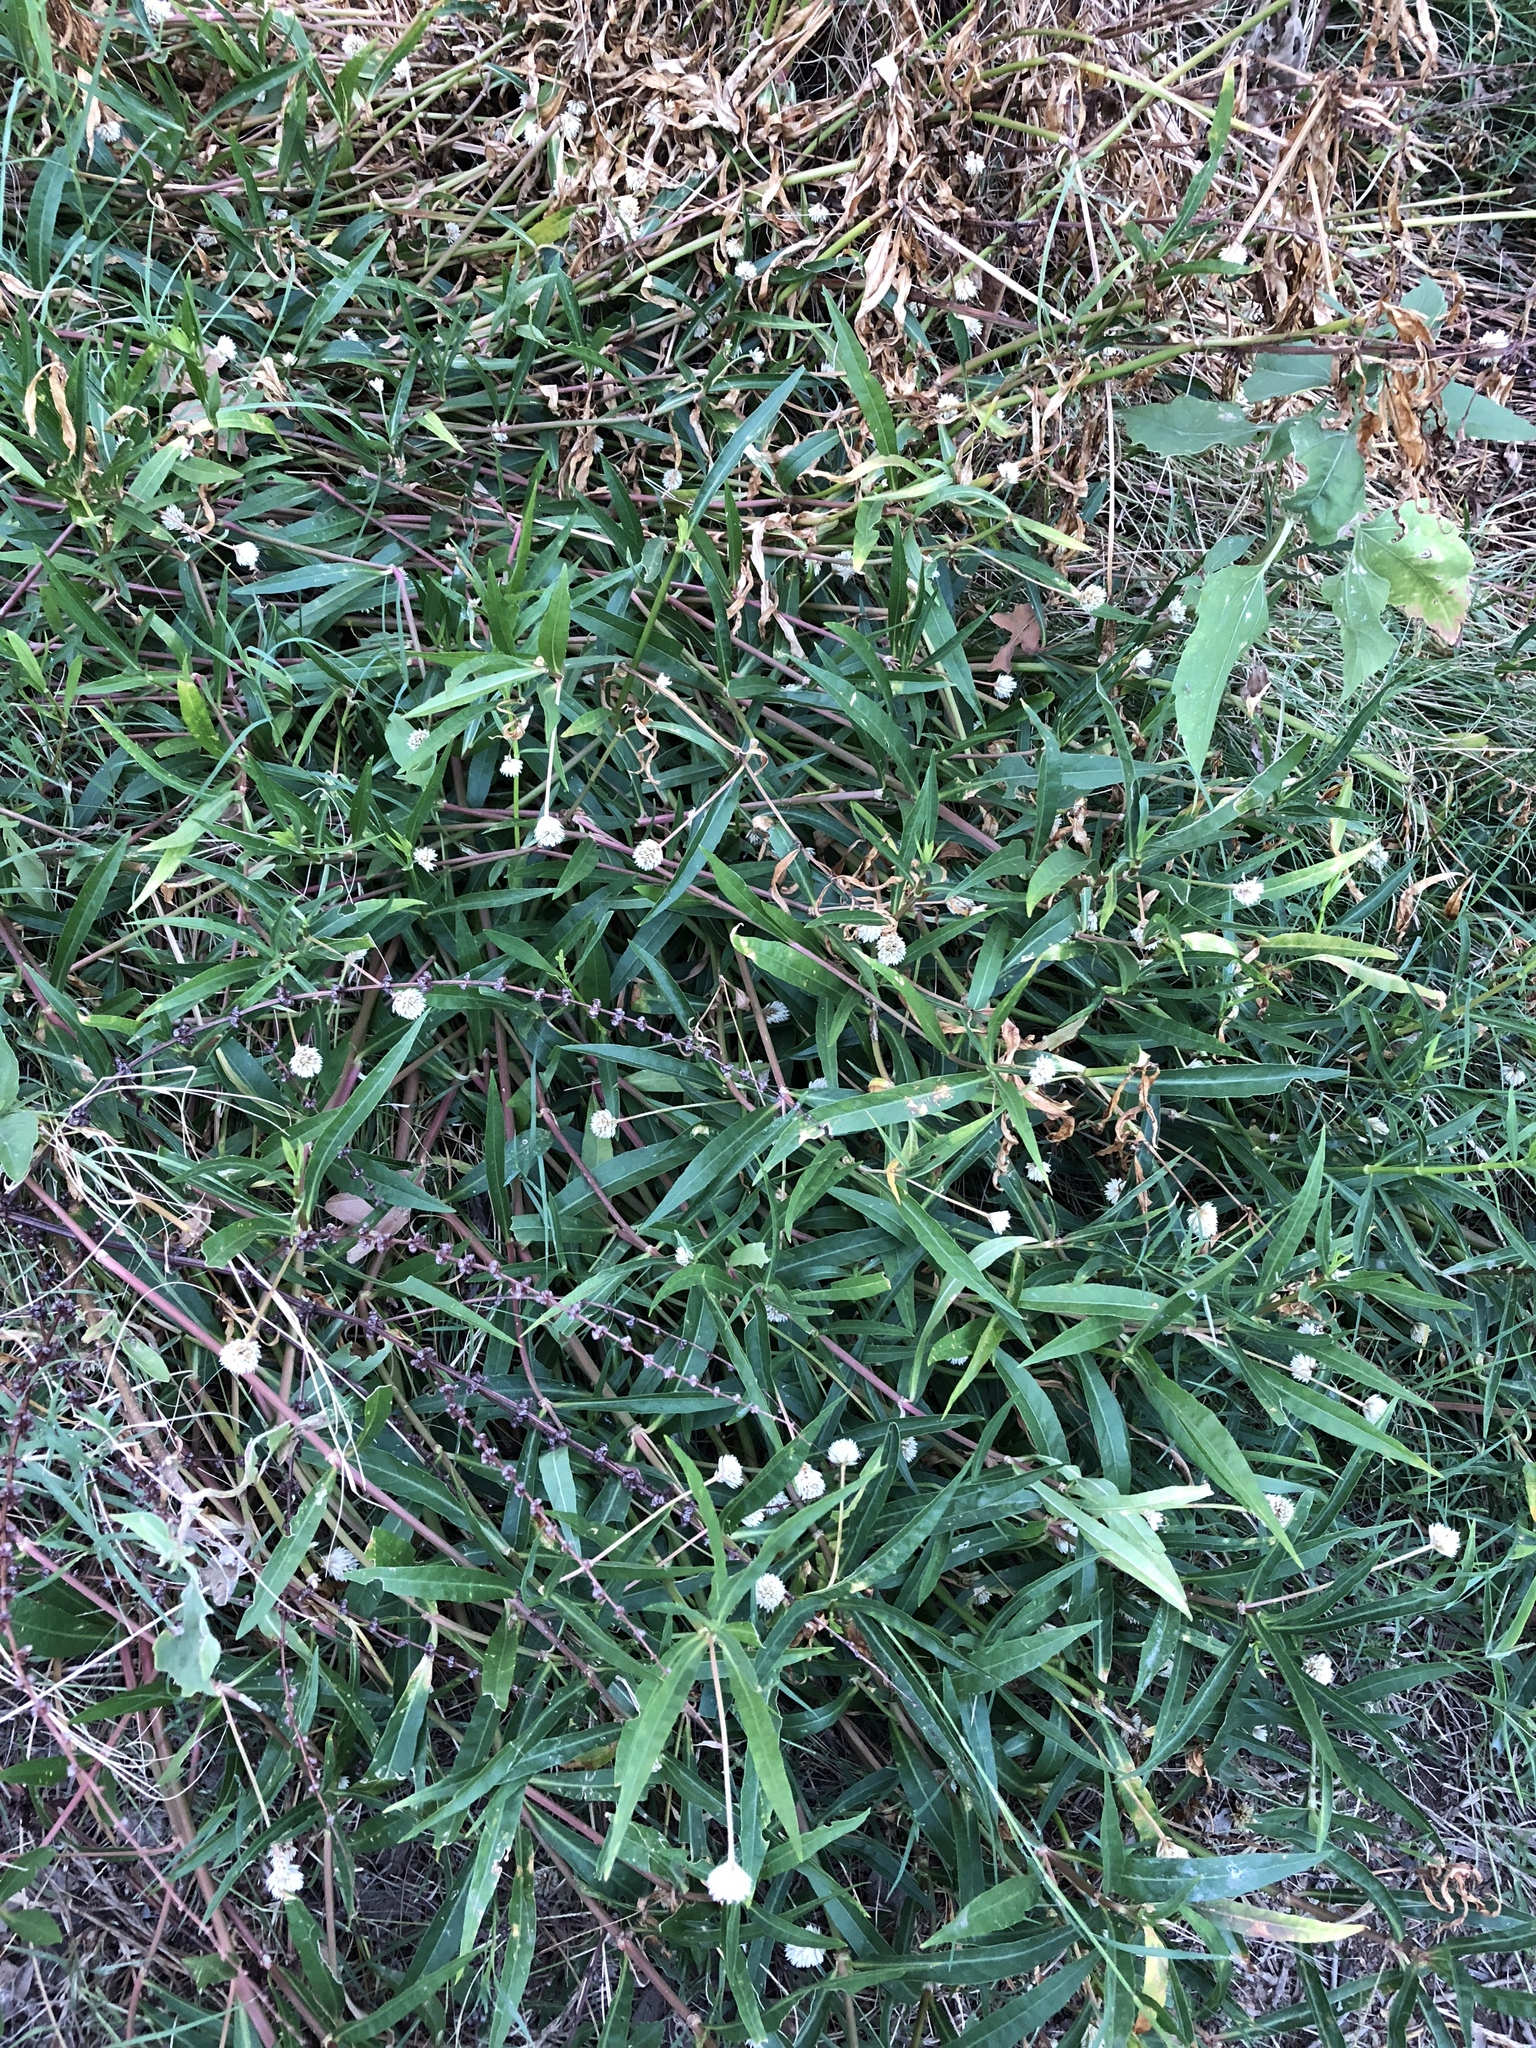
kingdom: Plantae
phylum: Tracheophyta
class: Magnoliopsida
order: Caryophyllales
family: Amaranthaceae
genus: Alternanthera
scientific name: Alternanthera philoxeroides
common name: Alligatorweed
